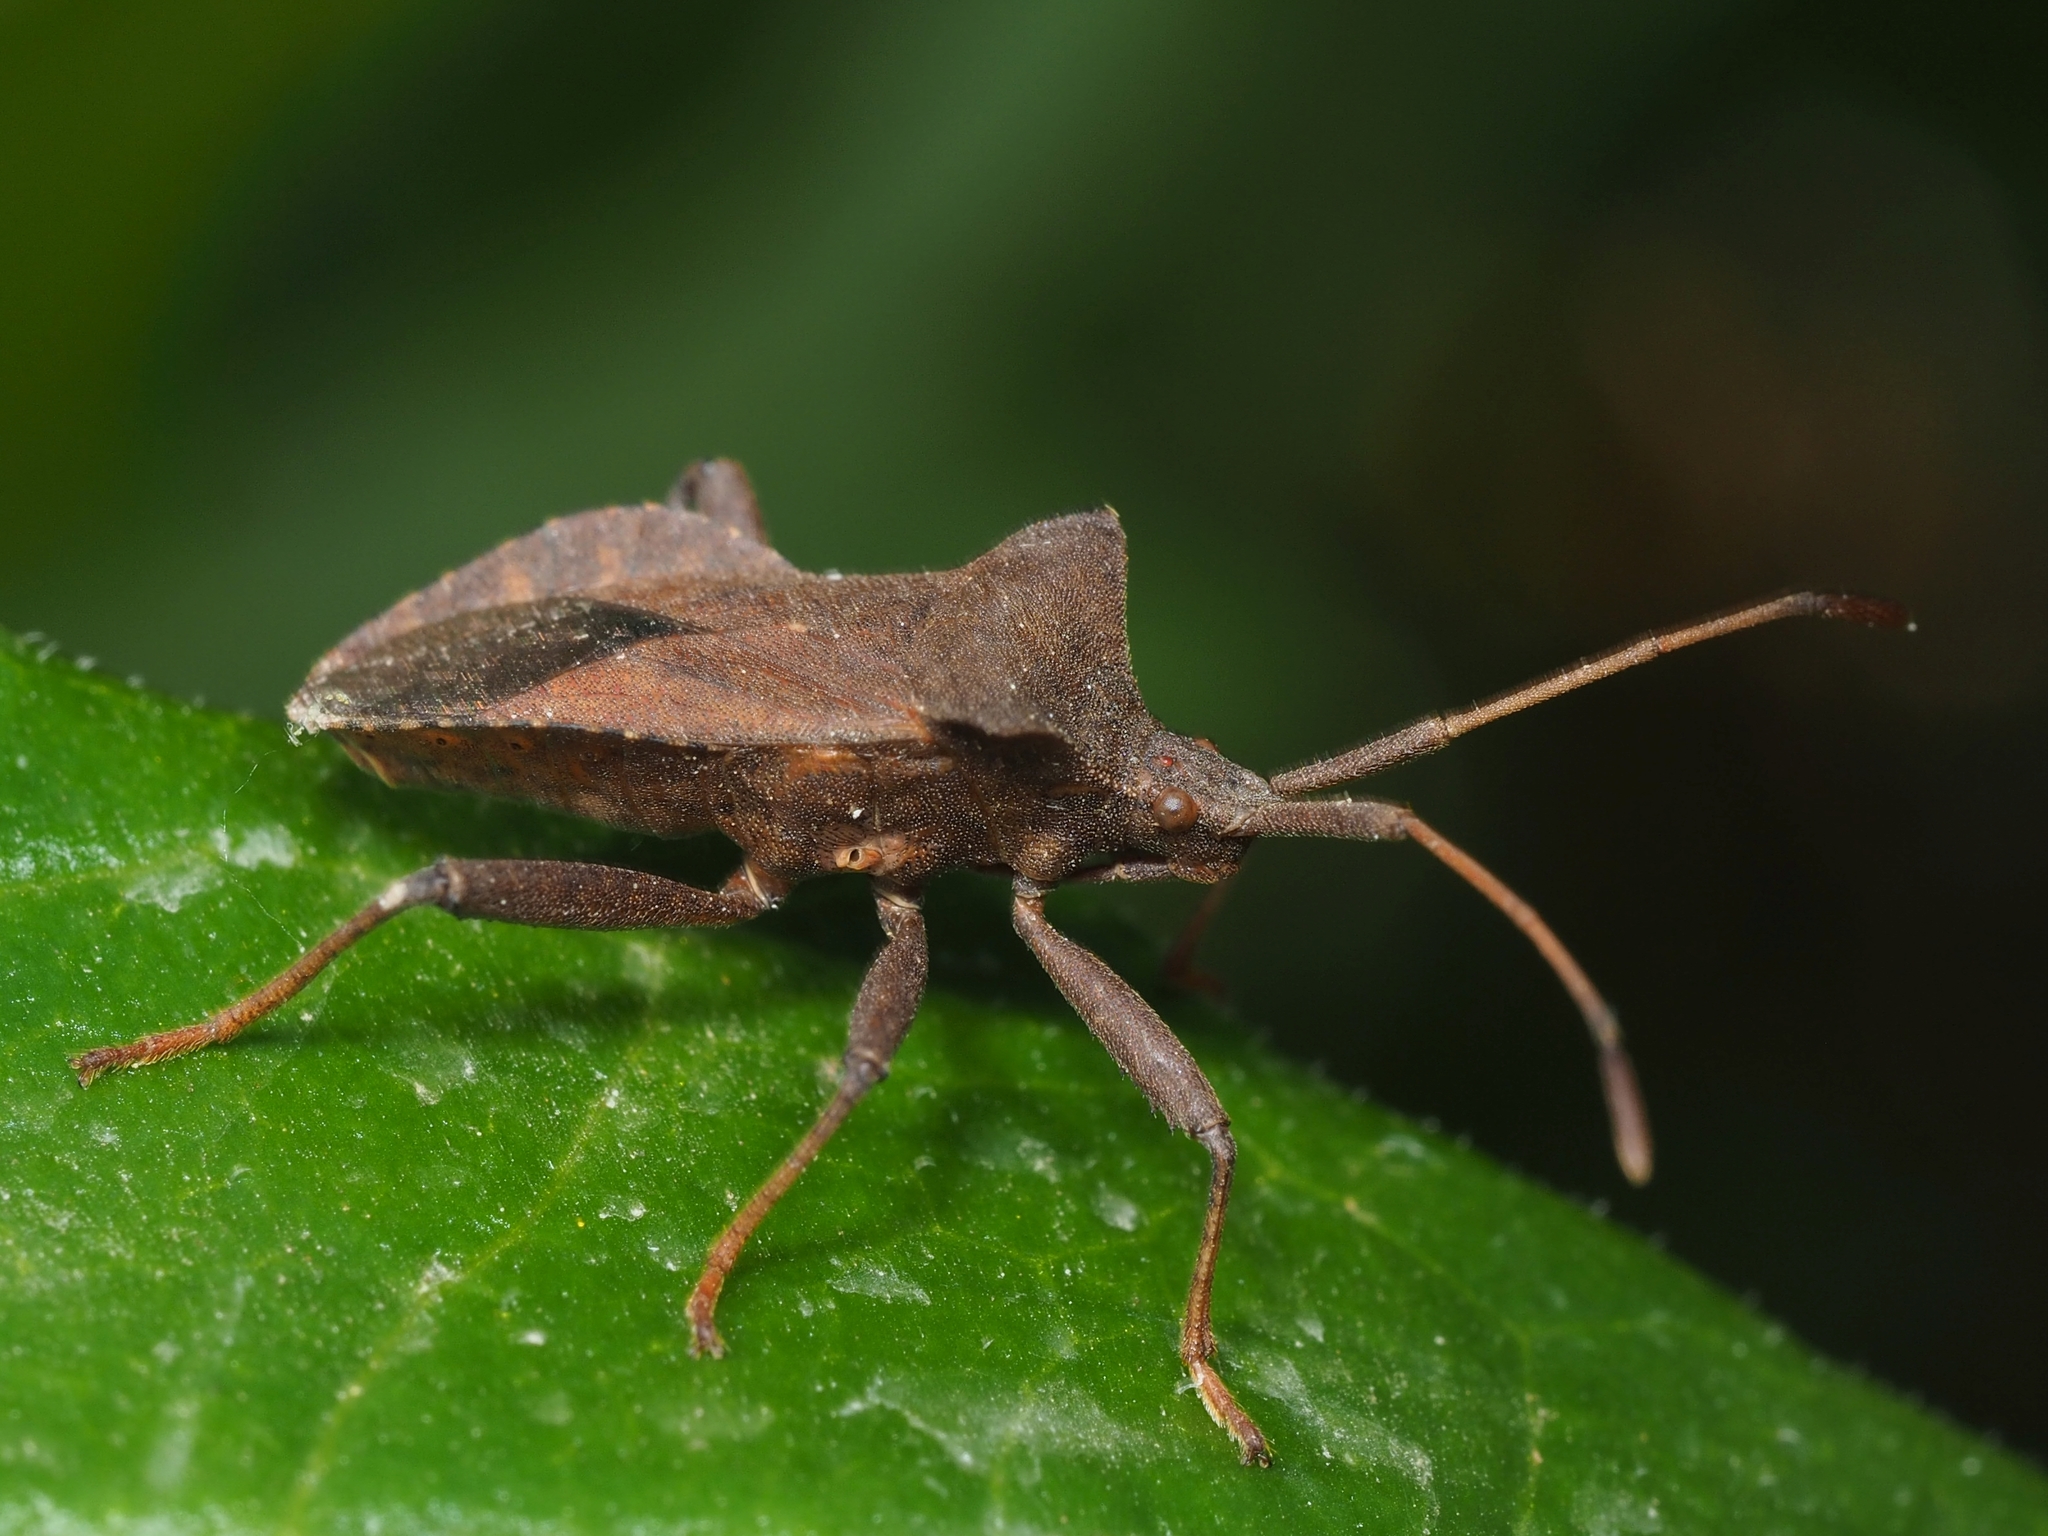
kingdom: Animalia
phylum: Arthropoda
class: Insecta
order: Hemiptera
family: Coreidae
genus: Coreus
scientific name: Coreus marginatus
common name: Dock bug
